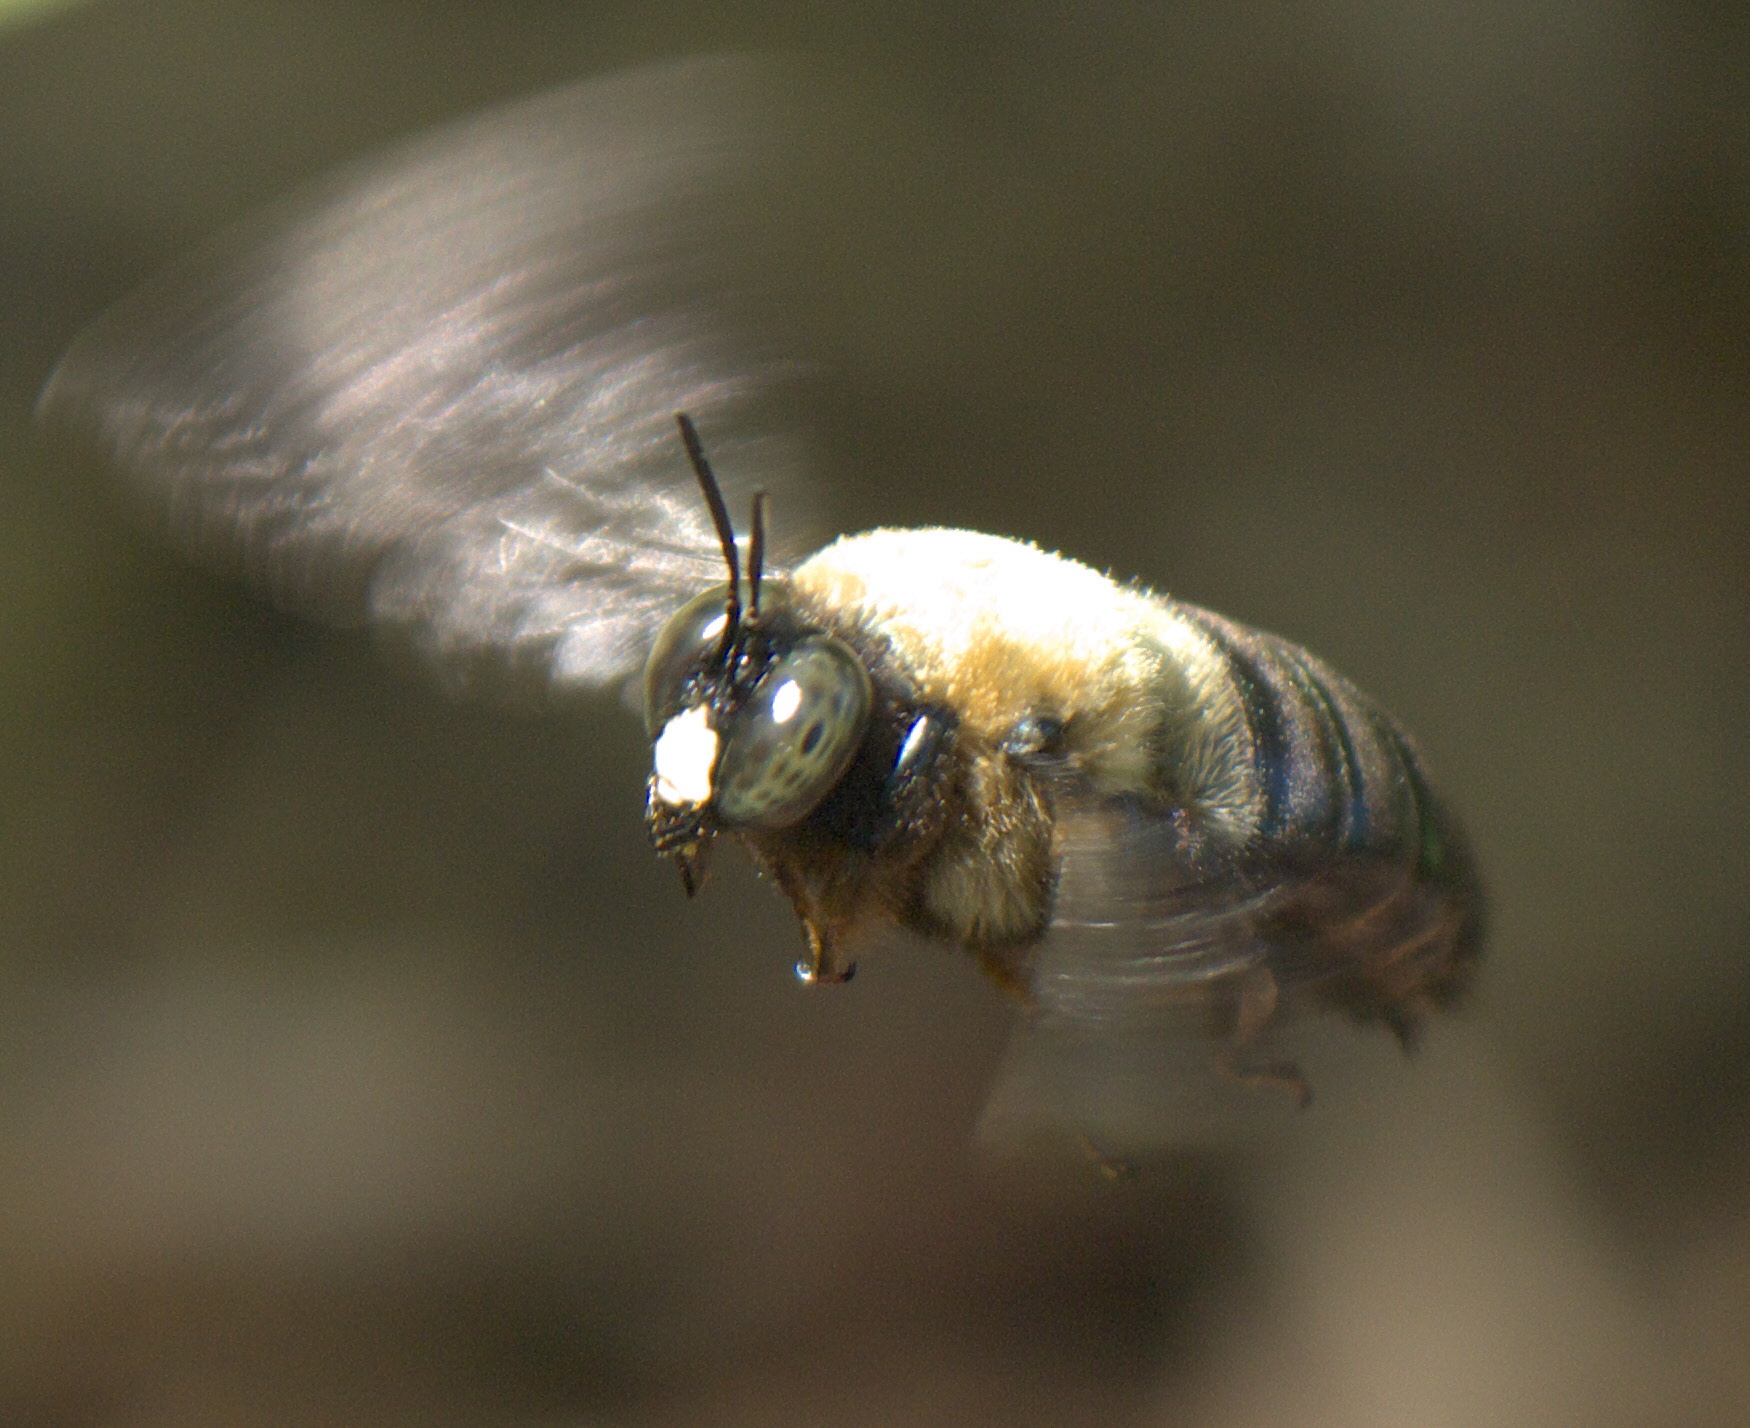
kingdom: Animalia
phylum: Arthropoda
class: Insecta
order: Hymenoptera
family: Apidae
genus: Xylocopa
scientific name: Xylocopa virginica
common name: Carpenter bee
